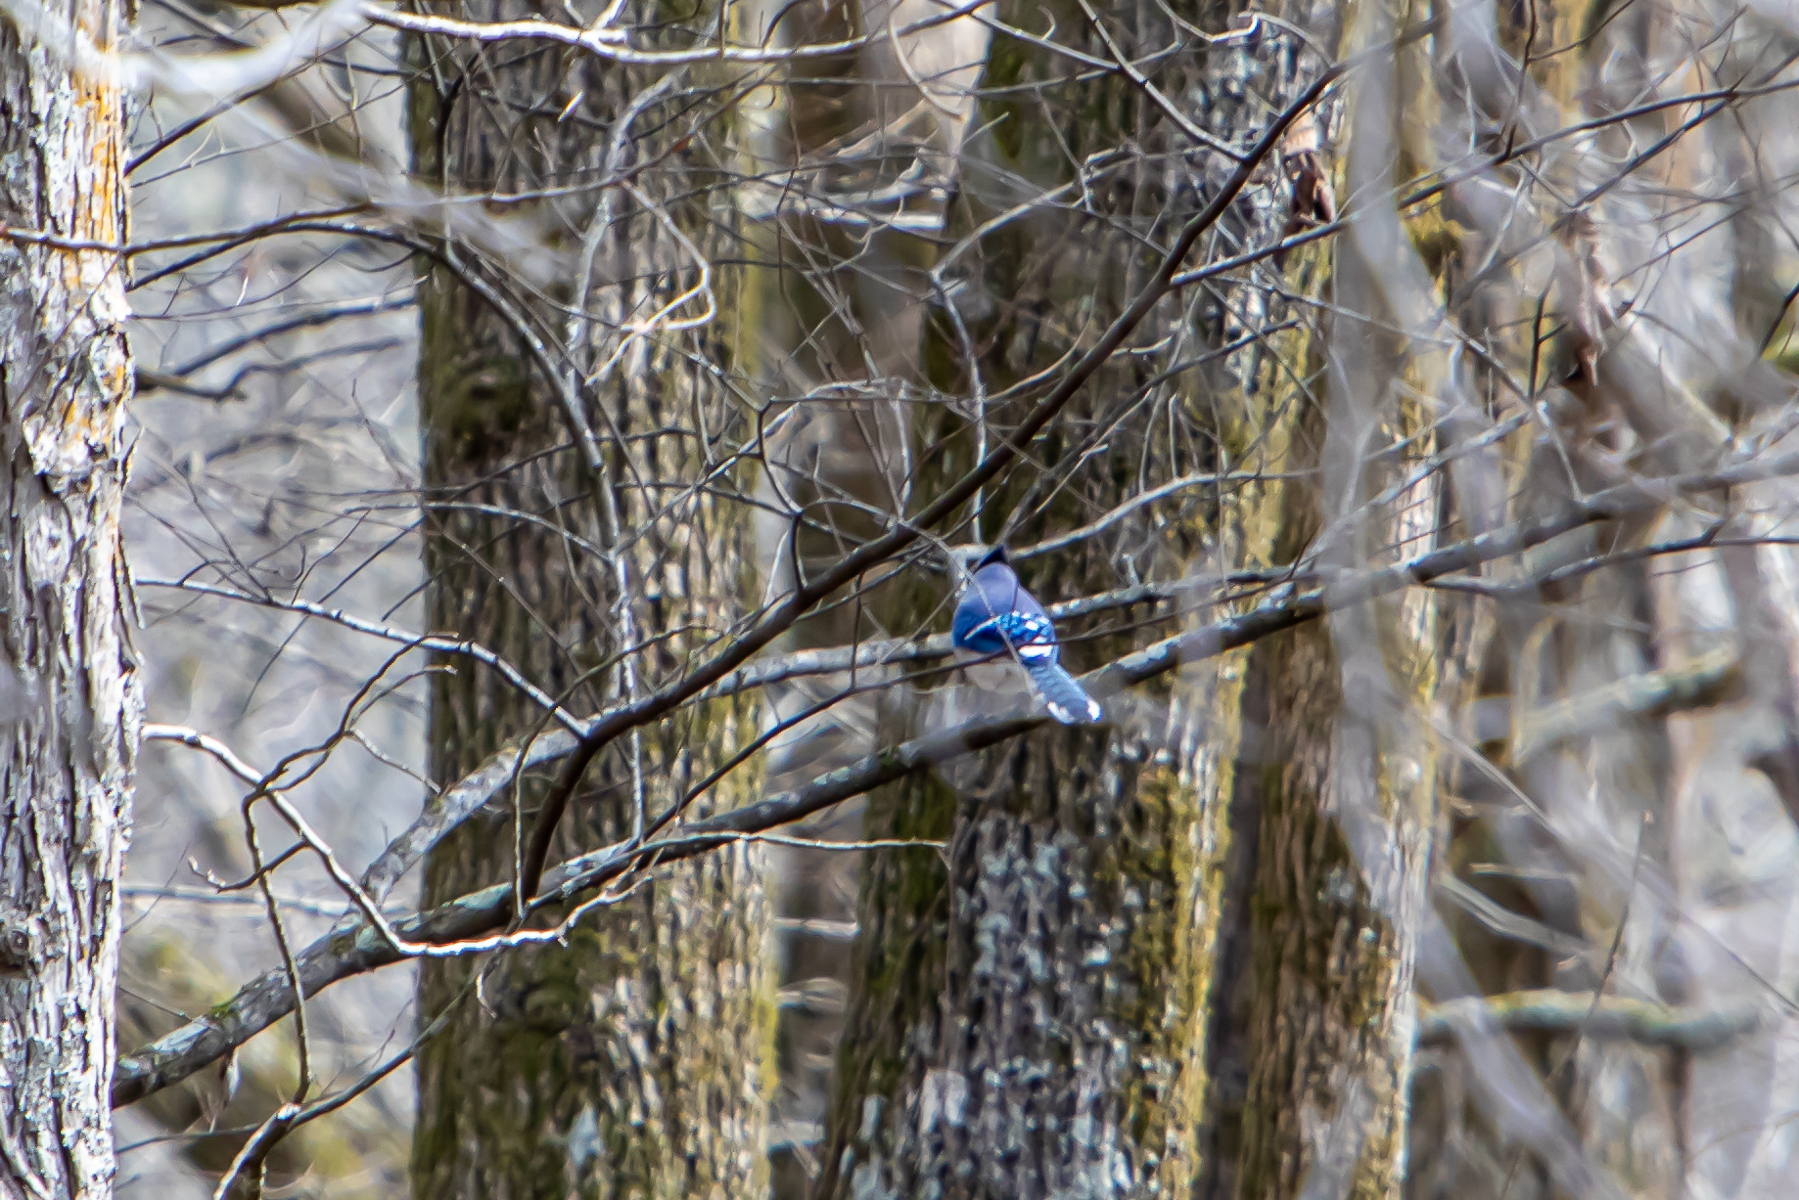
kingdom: Animalia
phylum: Chordata
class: Aves
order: Passeriformes
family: Corvidae
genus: Cyanocitta
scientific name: Cyanocitta cristata
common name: Blue jay
